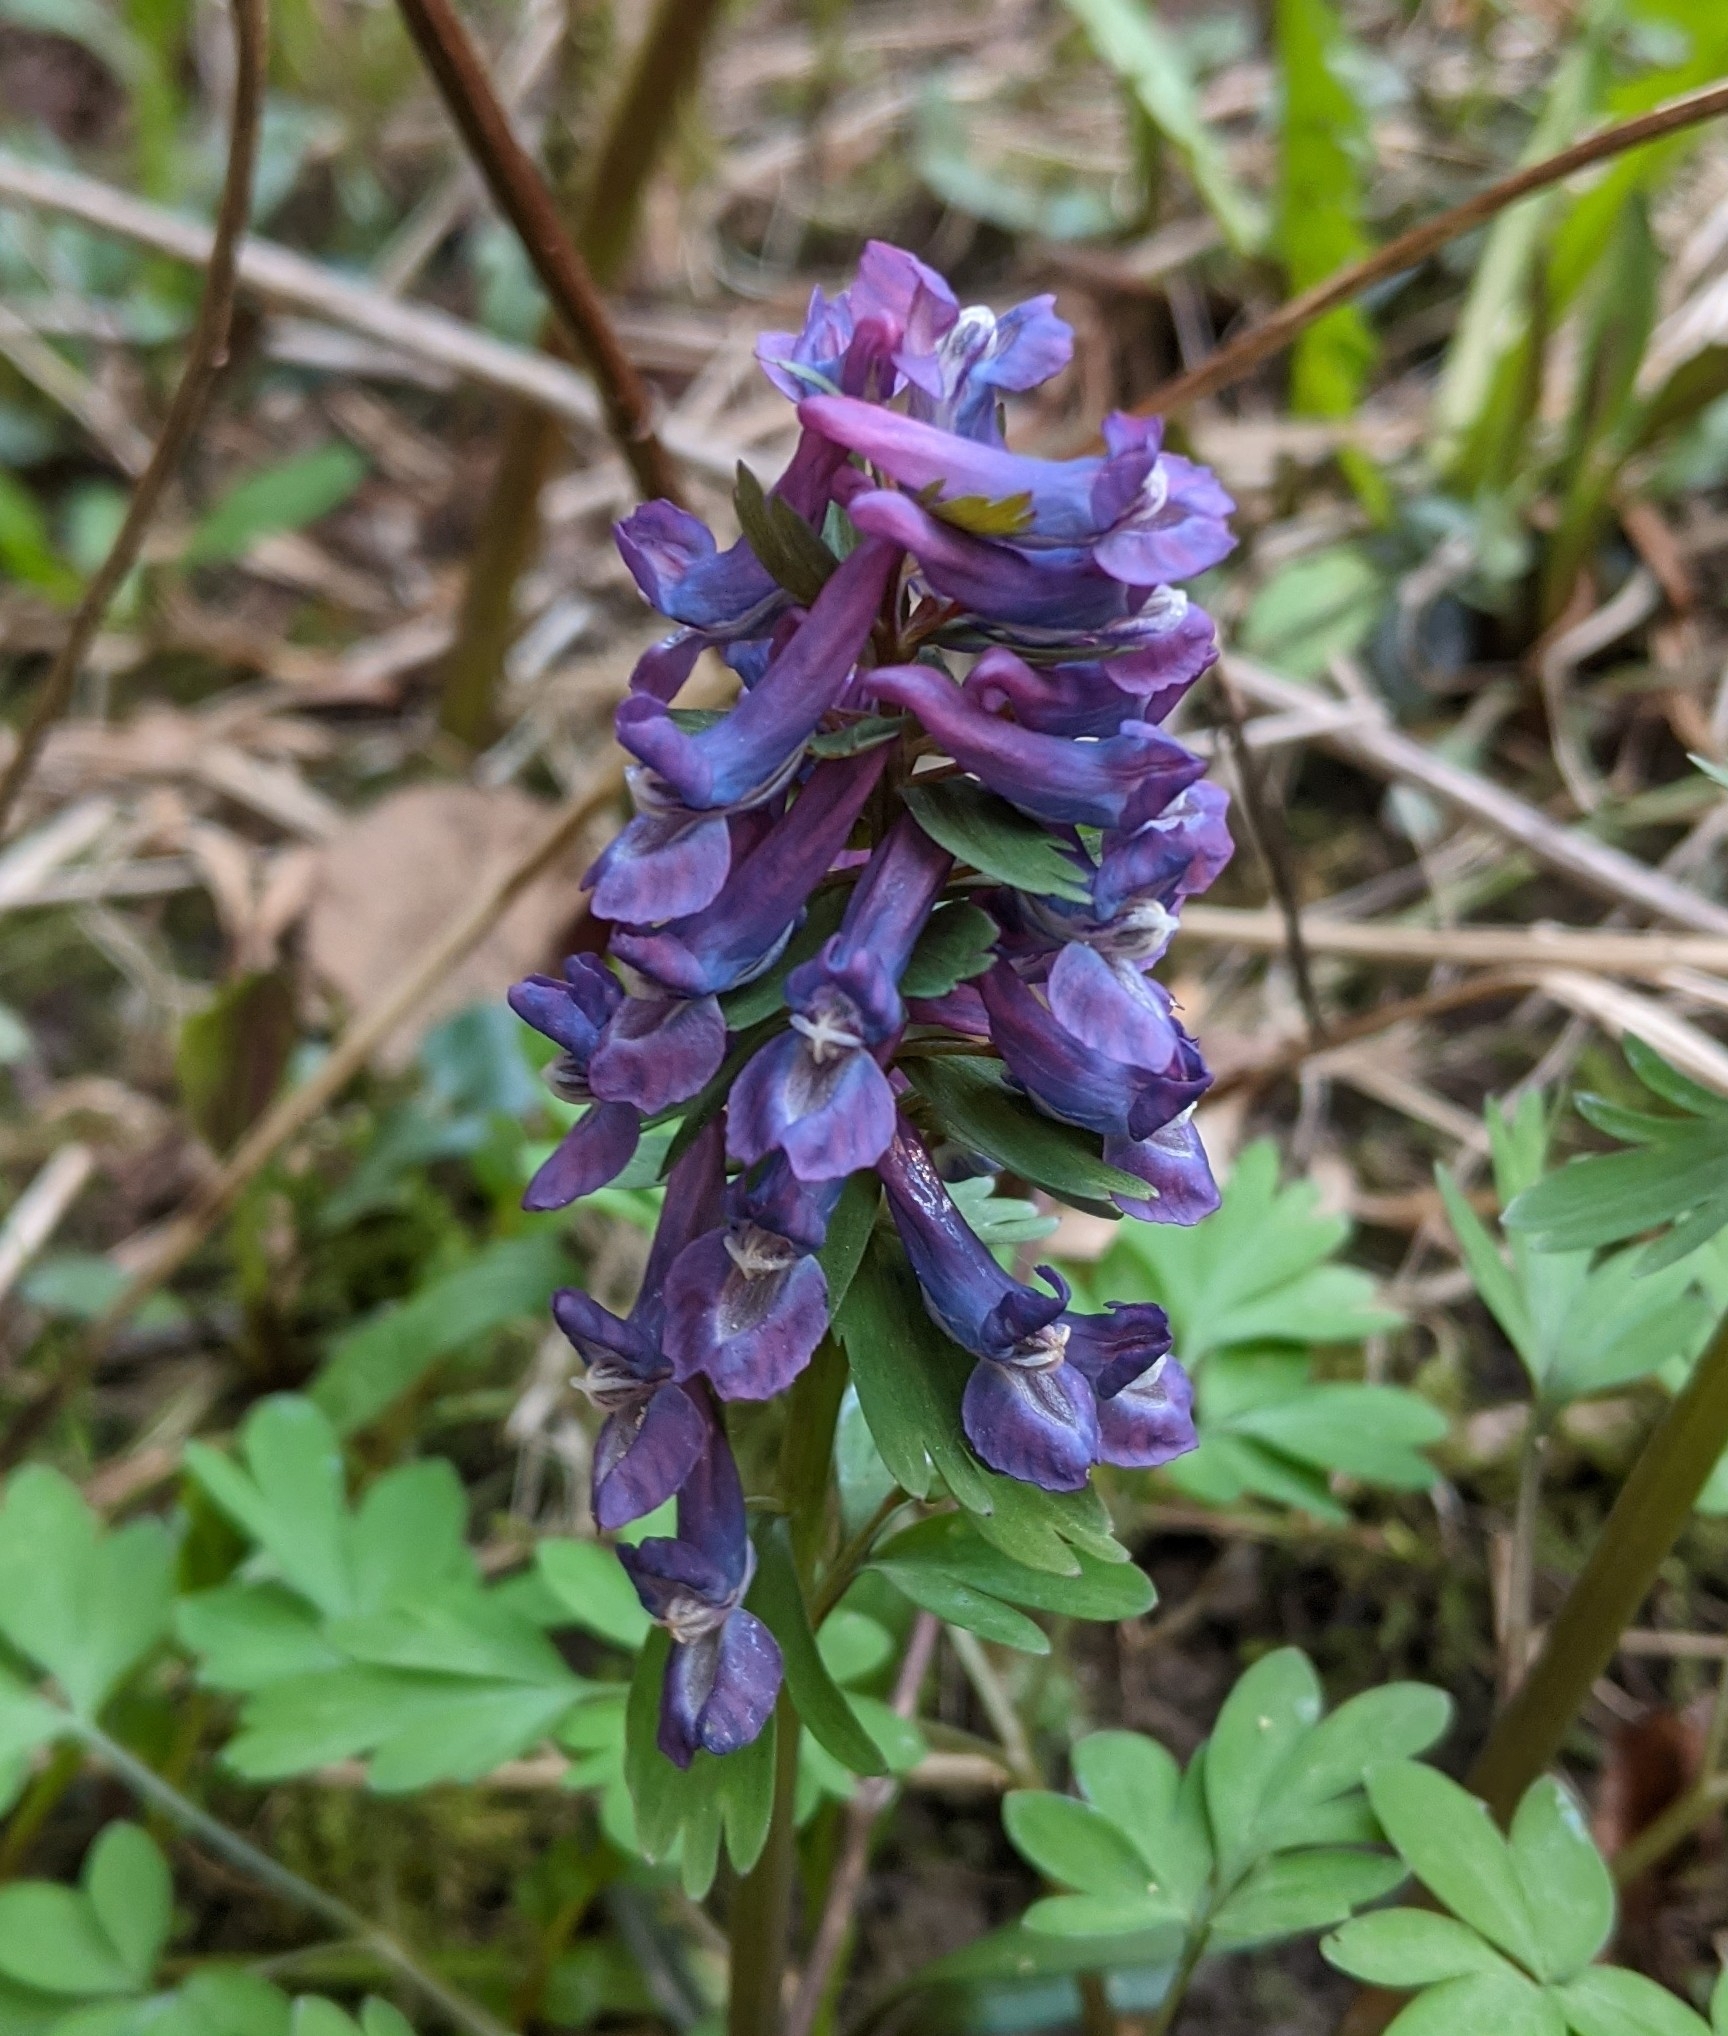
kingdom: Plantae
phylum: Tracheophyta
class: Magnoliopsida
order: Ranunculales
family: Papaveraceae
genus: Corydalis
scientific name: Corydalis solida
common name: Bird-in-a-bush
